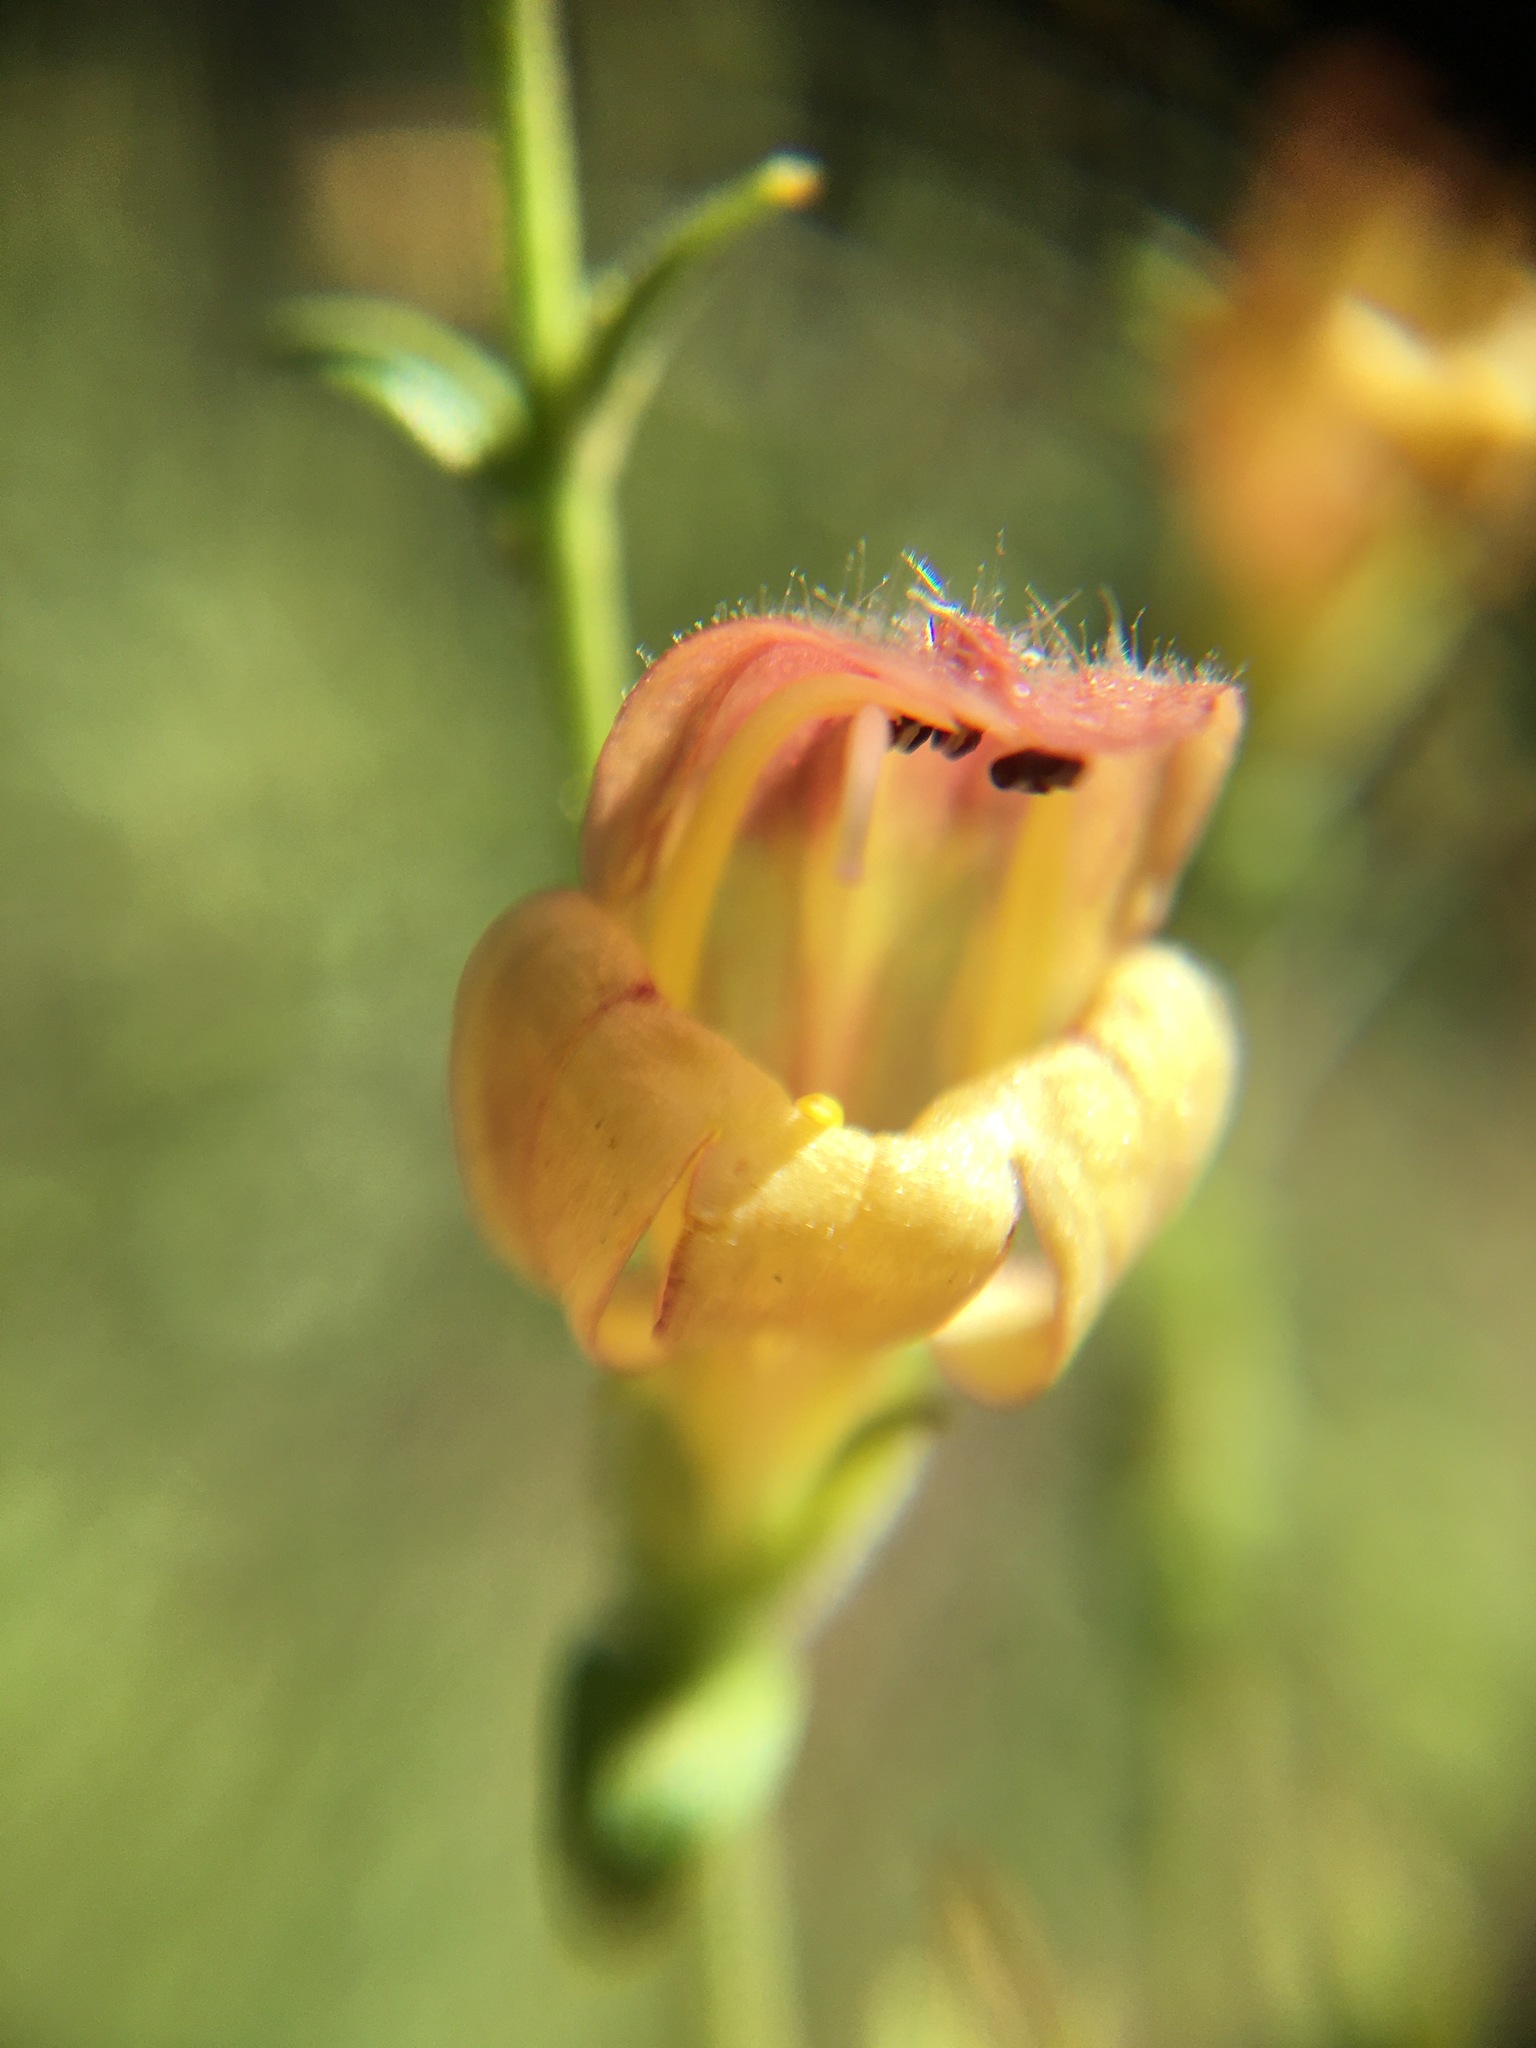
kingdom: Plantae
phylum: Tracheophyta
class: Magnoliopsida
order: Lamiales
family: Plantaginaceae
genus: Keckiella
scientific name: Keckiella rothrockii
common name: Rothrock's keckiella
